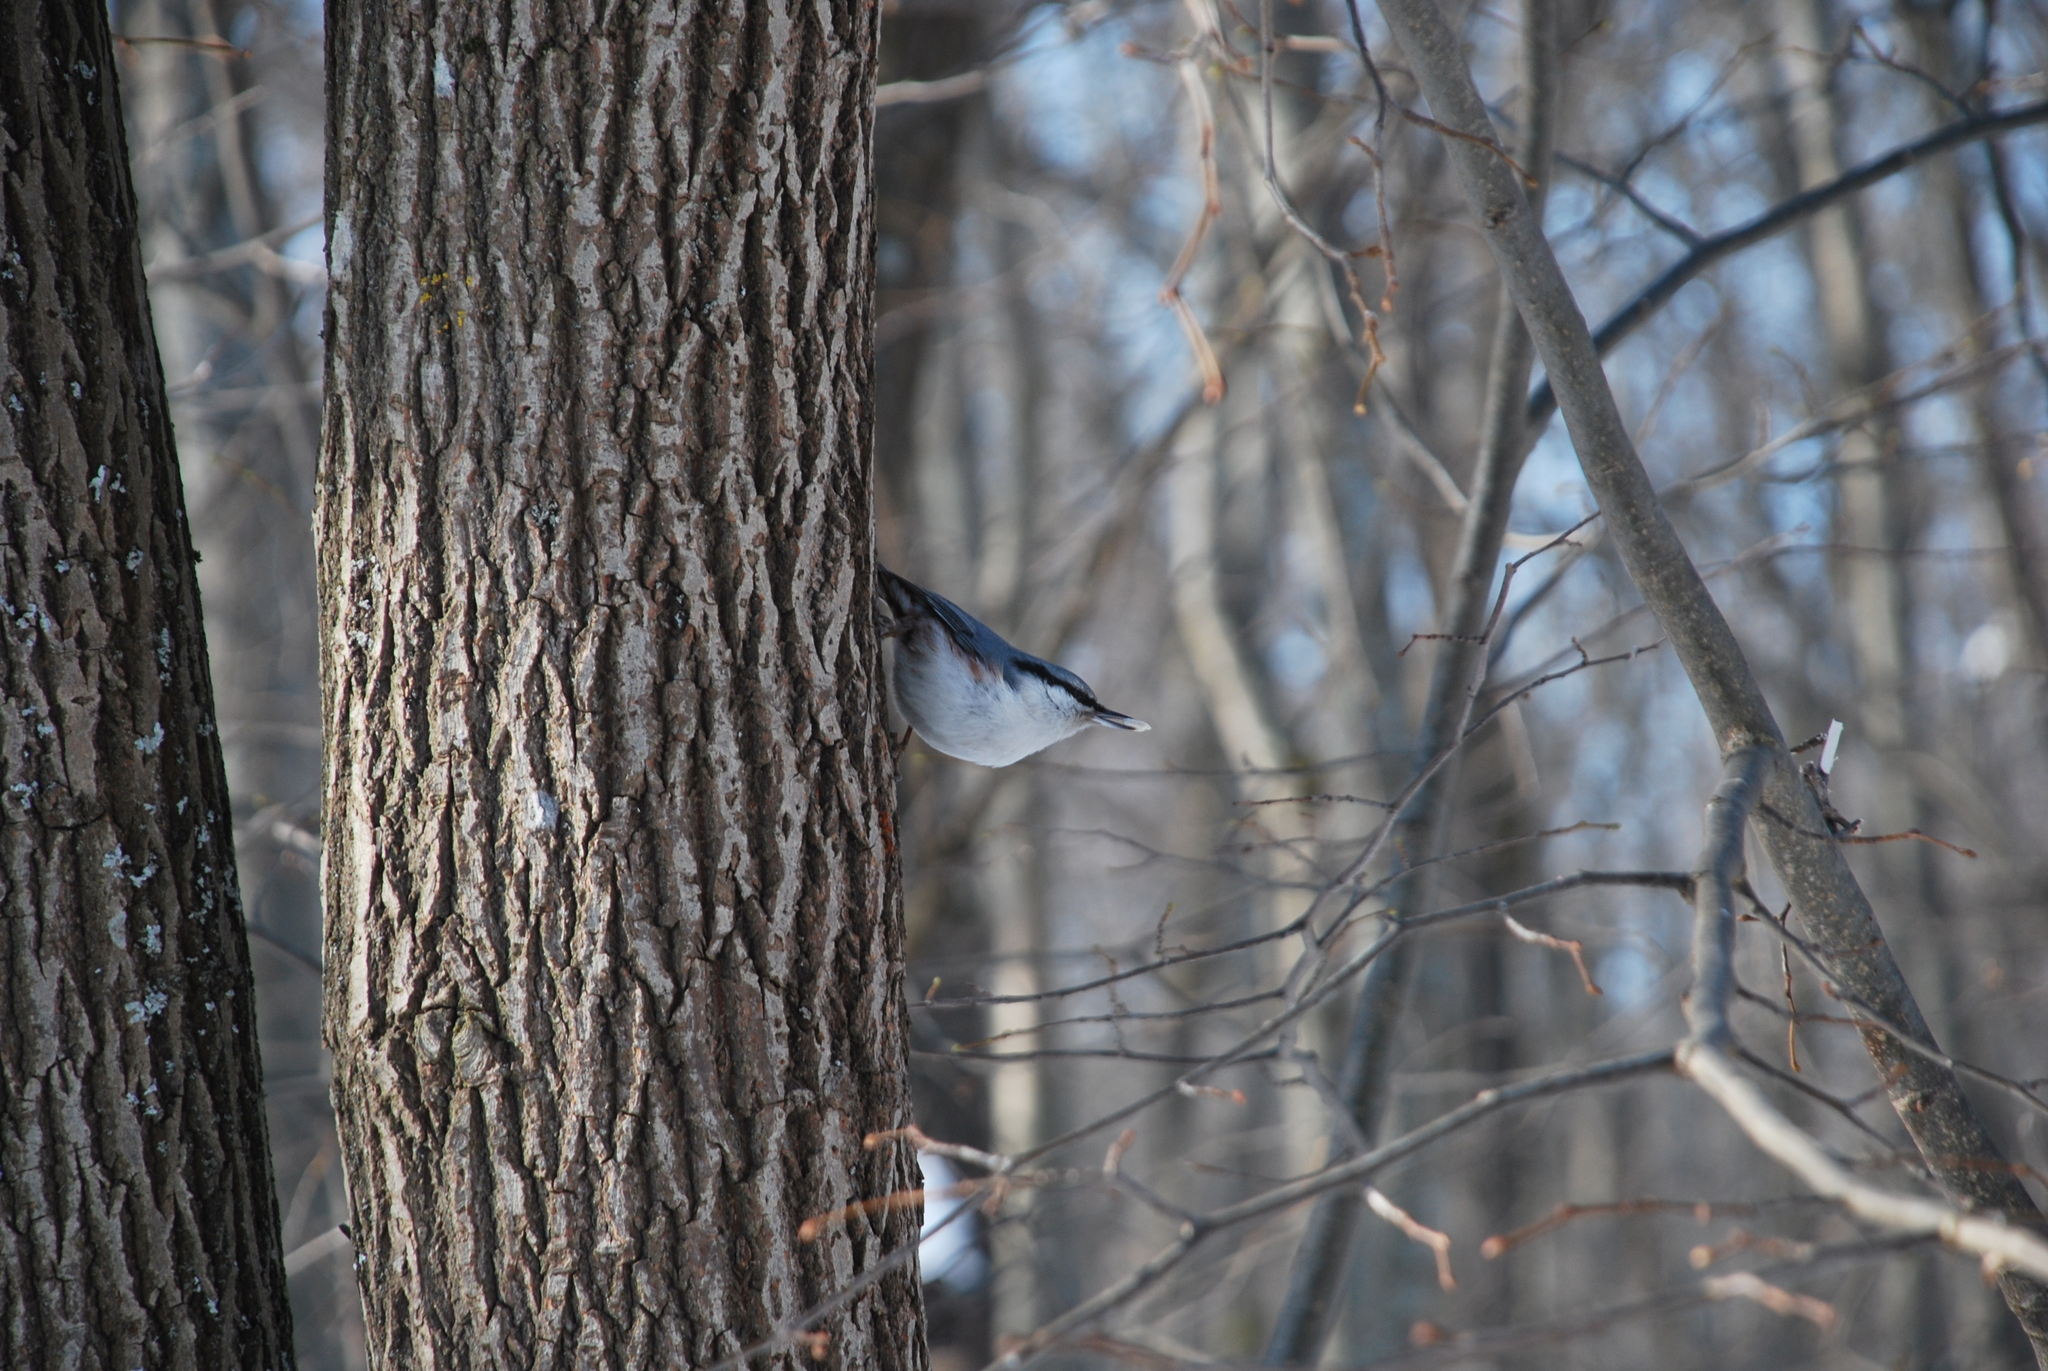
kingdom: Animalia
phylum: Chordata
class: Aves
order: Passeriformes
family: Sittidae
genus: Sitta
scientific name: Sitta europaea
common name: Eurasian nuthatch
